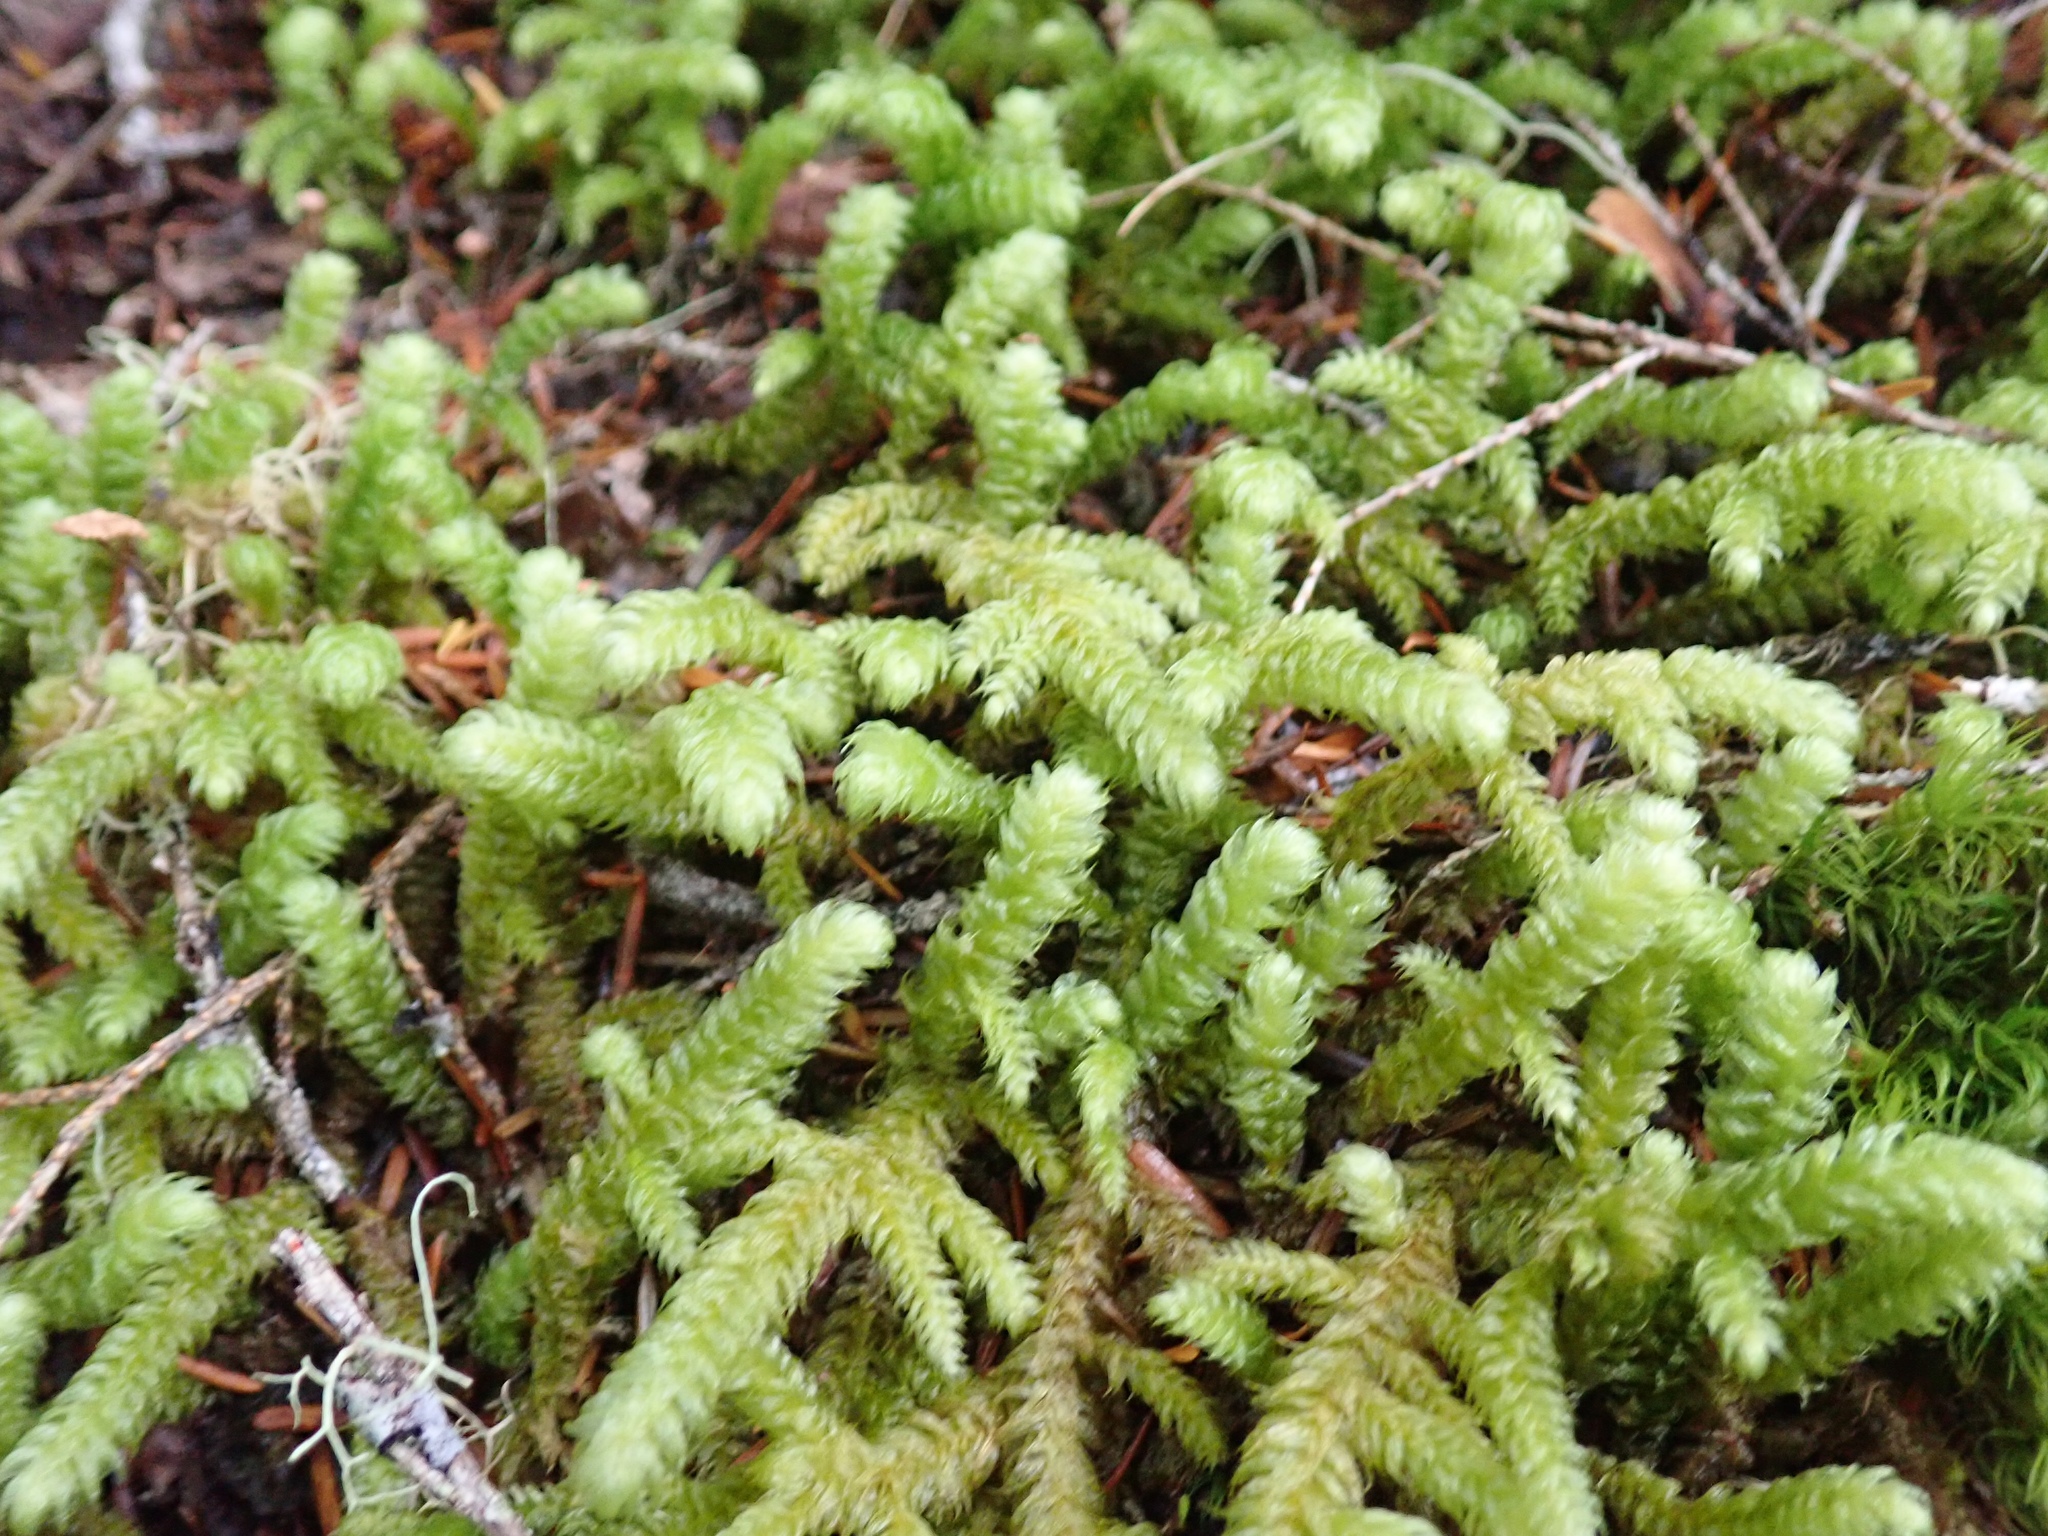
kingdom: Plantae
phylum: Bryophyta
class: Bryopsida
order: Hypnales
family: Hylocomiaceae
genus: Rhytidiopsis
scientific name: Rhytidiopsis robusta
